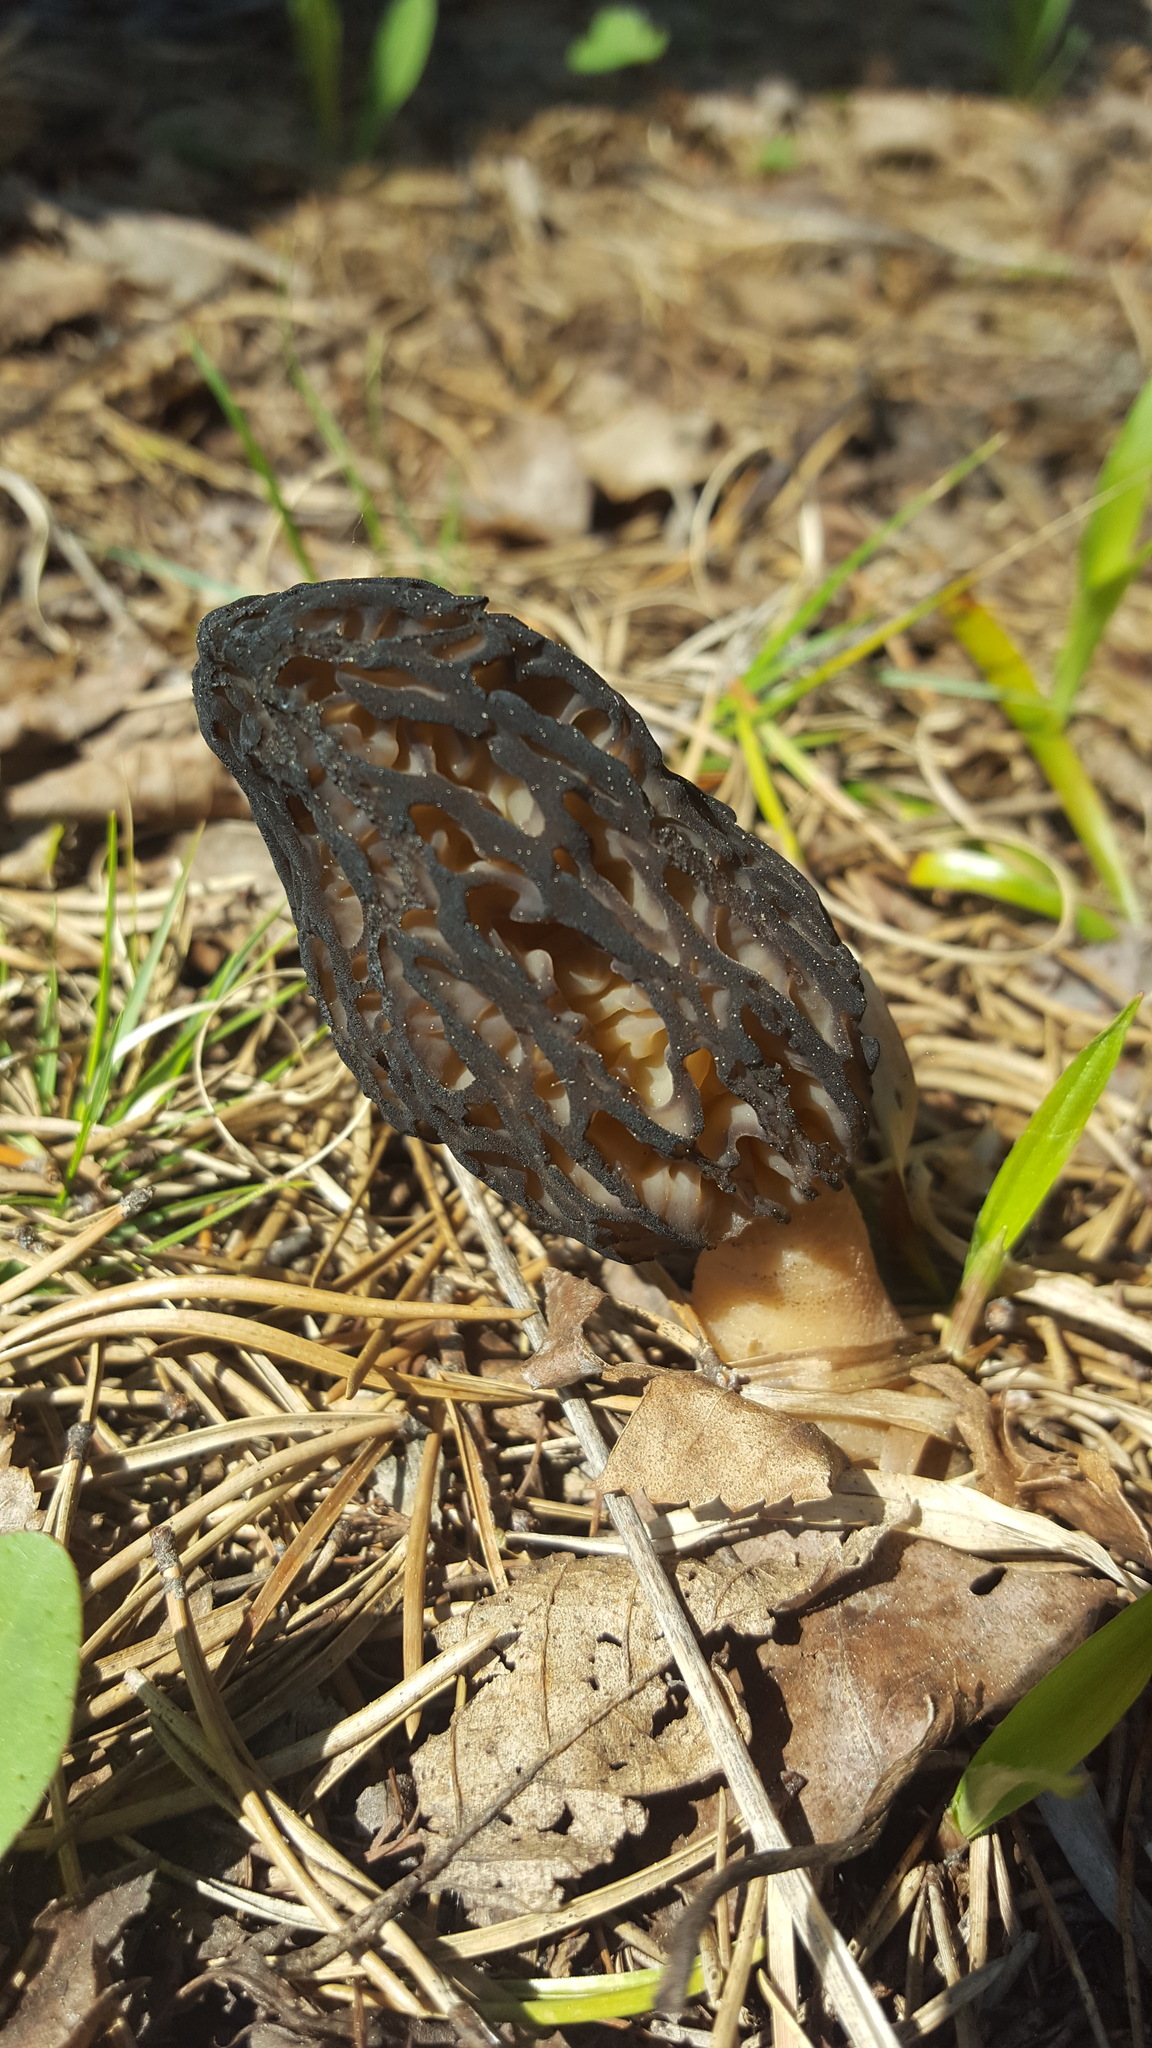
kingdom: Fungi
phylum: Ascomycota
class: Pezizomycetes
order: Pezizales
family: Morchellaceae
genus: Morchella
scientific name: Morchella angusticeps
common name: Black morel
